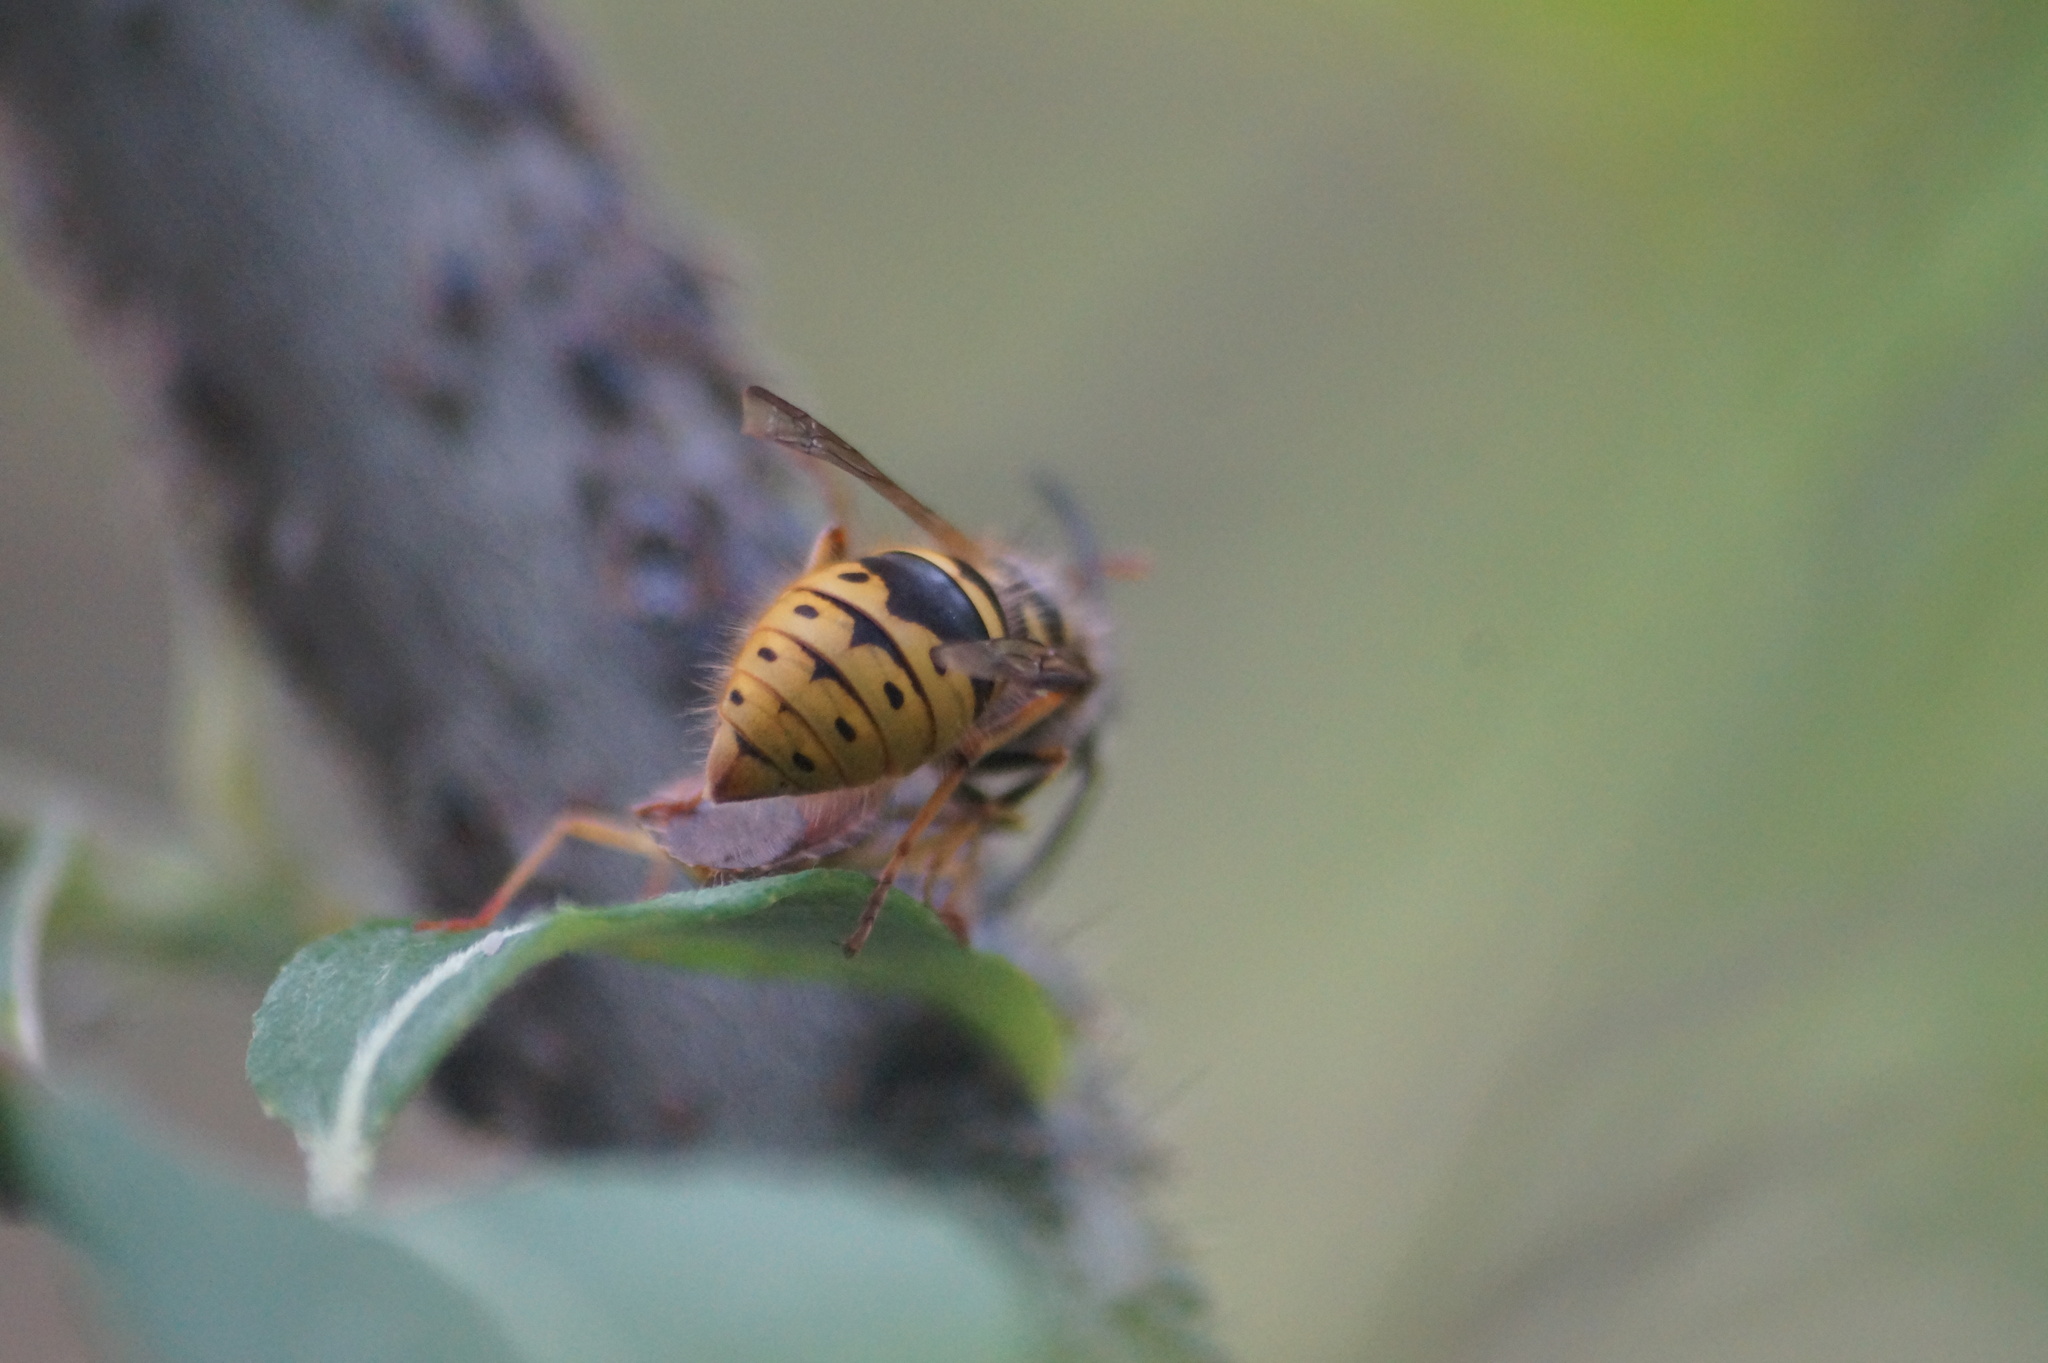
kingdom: Animalia
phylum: Arthropoda
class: Insecta
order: Hymenoptera
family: Vespidae
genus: Vespula
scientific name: Vespula vulgaris
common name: Common wasp
